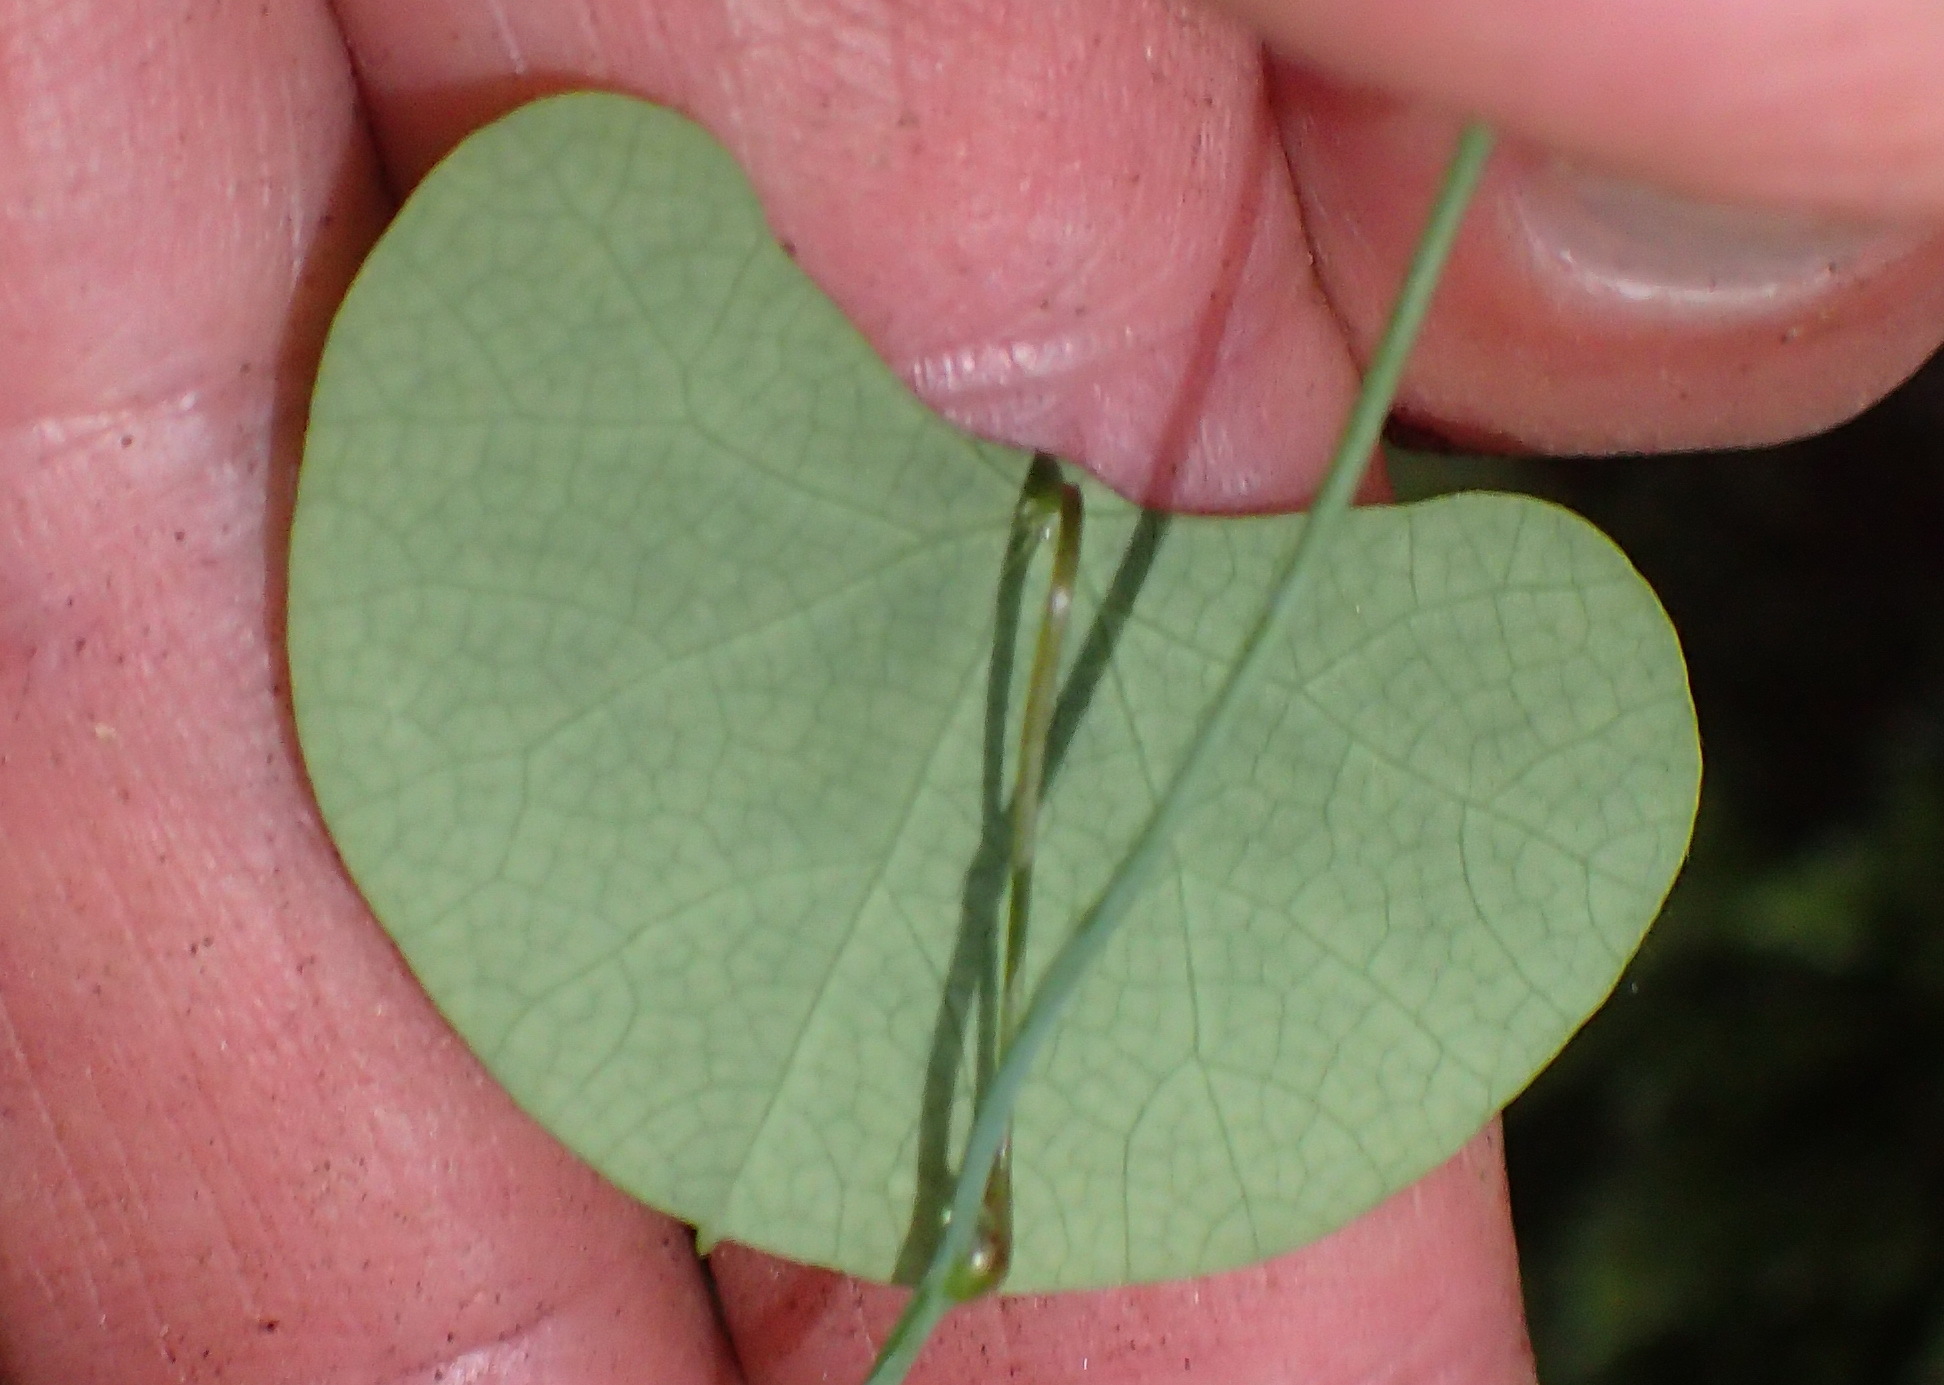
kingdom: Plantae
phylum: Tracheophyta
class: Magnoliopsida
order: Ranunculales
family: Menispermaceae
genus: Cissampelos
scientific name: Cissampelos torulosa
